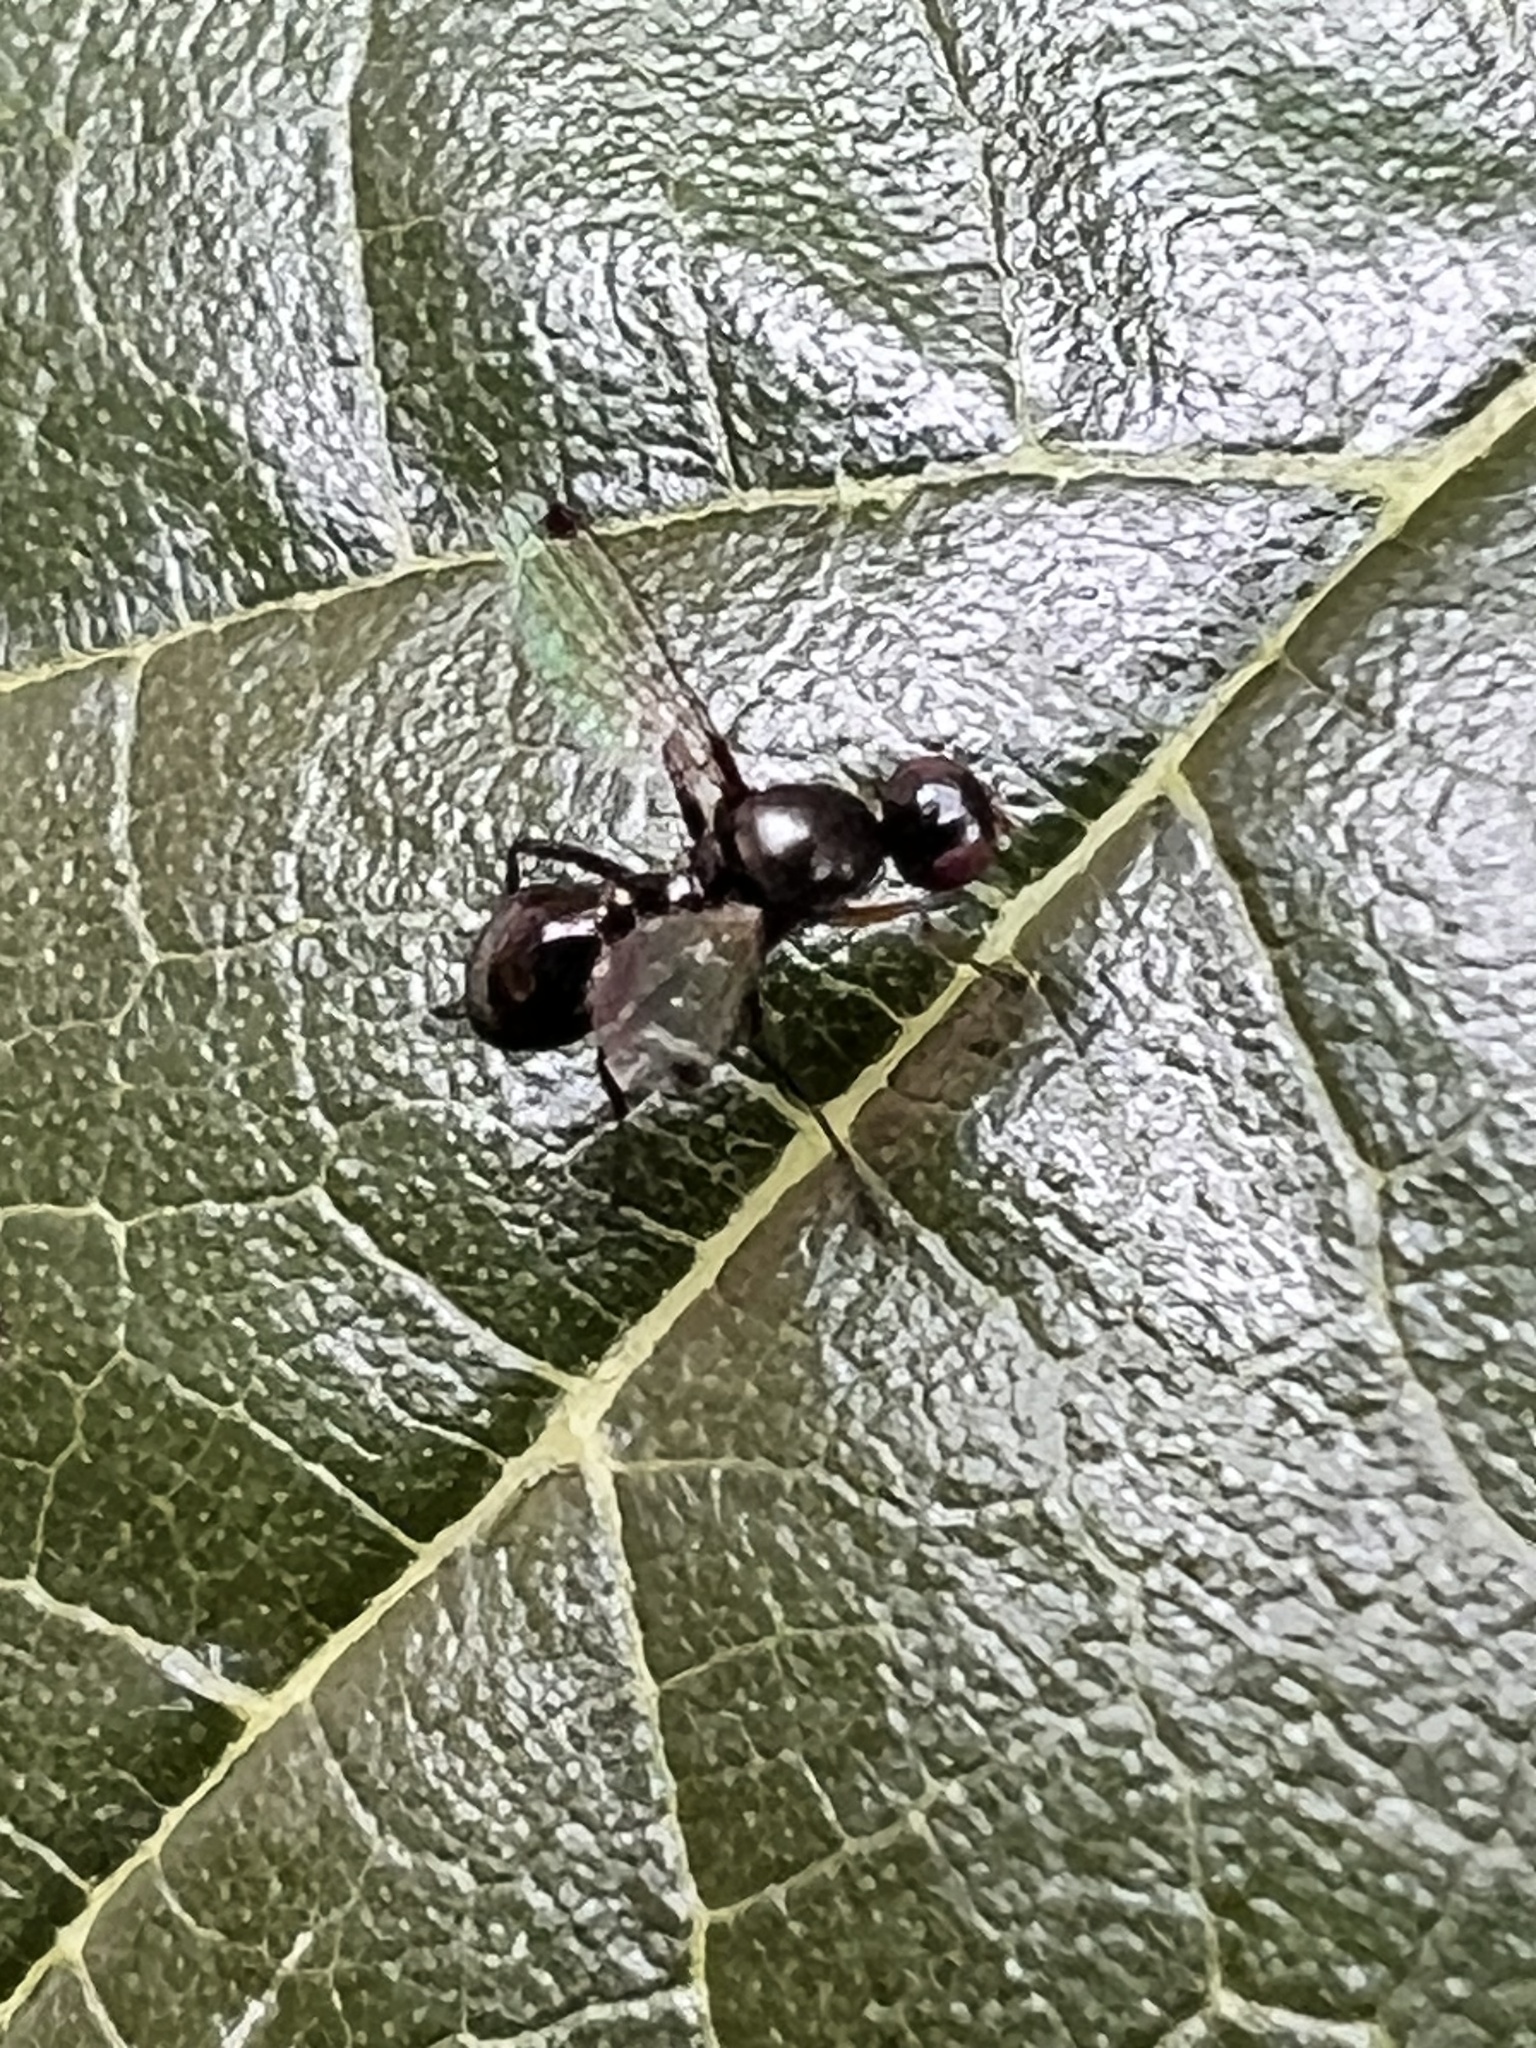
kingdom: Animalia
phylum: Arthropoda
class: Insecta
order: Diptera
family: Sepsidae
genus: Parapalaeosepsis
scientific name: Parapalaeosepsis plebeia
